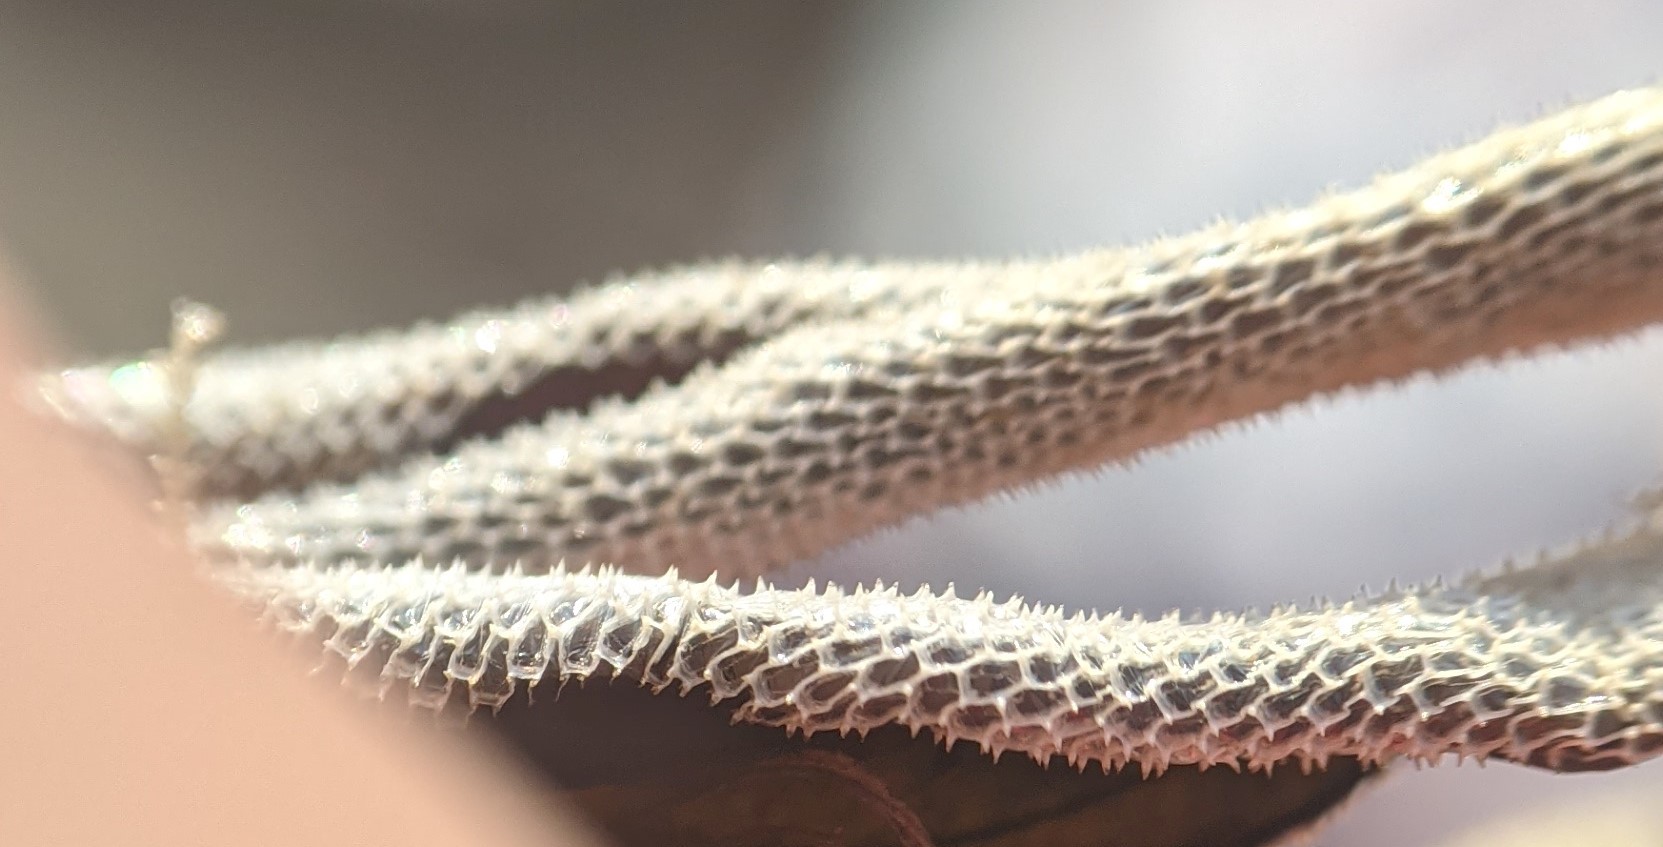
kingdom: Animalia
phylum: Bryozoa
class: Gymnolaemata
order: Cheilostomatida
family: Membraniporidae
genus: Membranipora
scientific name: Membranipora membranacea
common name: Sea mat
